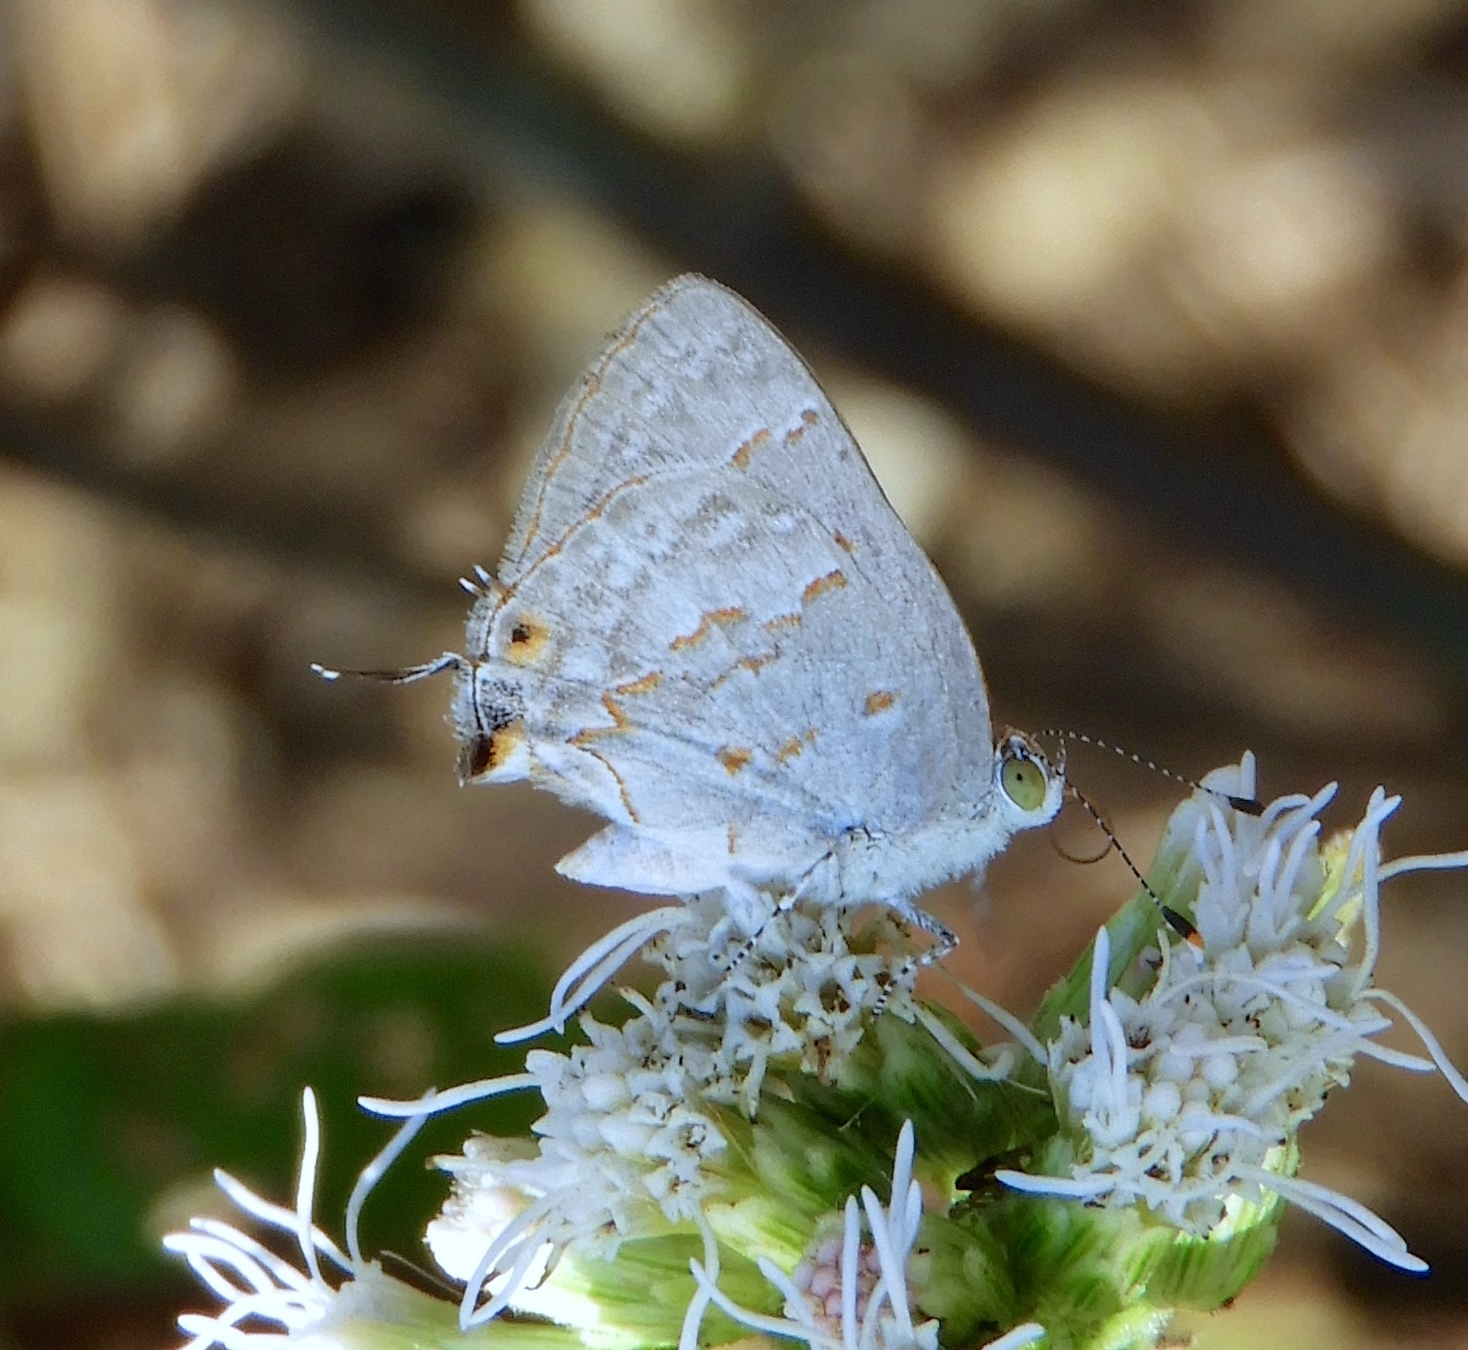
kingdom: Animalia
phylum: Arthropoda
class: Insecta
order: Lepidoptera
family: Lycaenidae
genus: Ministrymon
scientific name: Ministrymon
